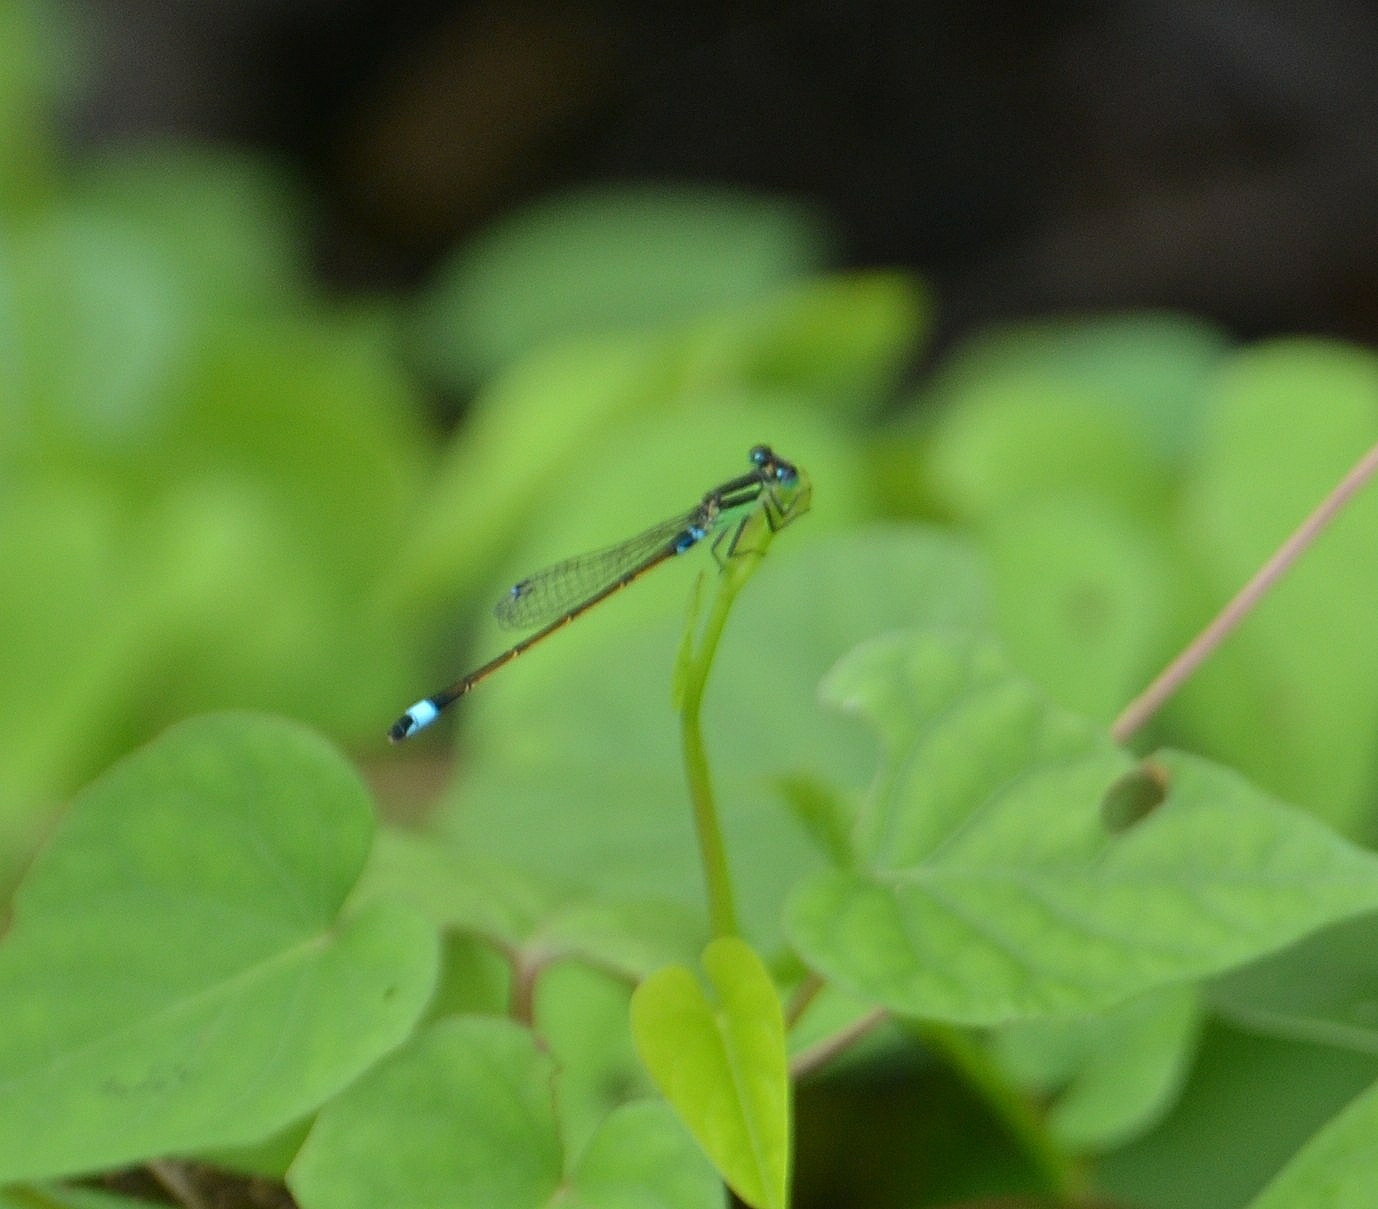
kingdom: Animalia
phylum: Arthropoda
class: Insecta
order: Odonata
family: Coenagrionidae
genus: Ischnura
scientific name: Ischnura senegalensis
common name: Tropical bluetail
